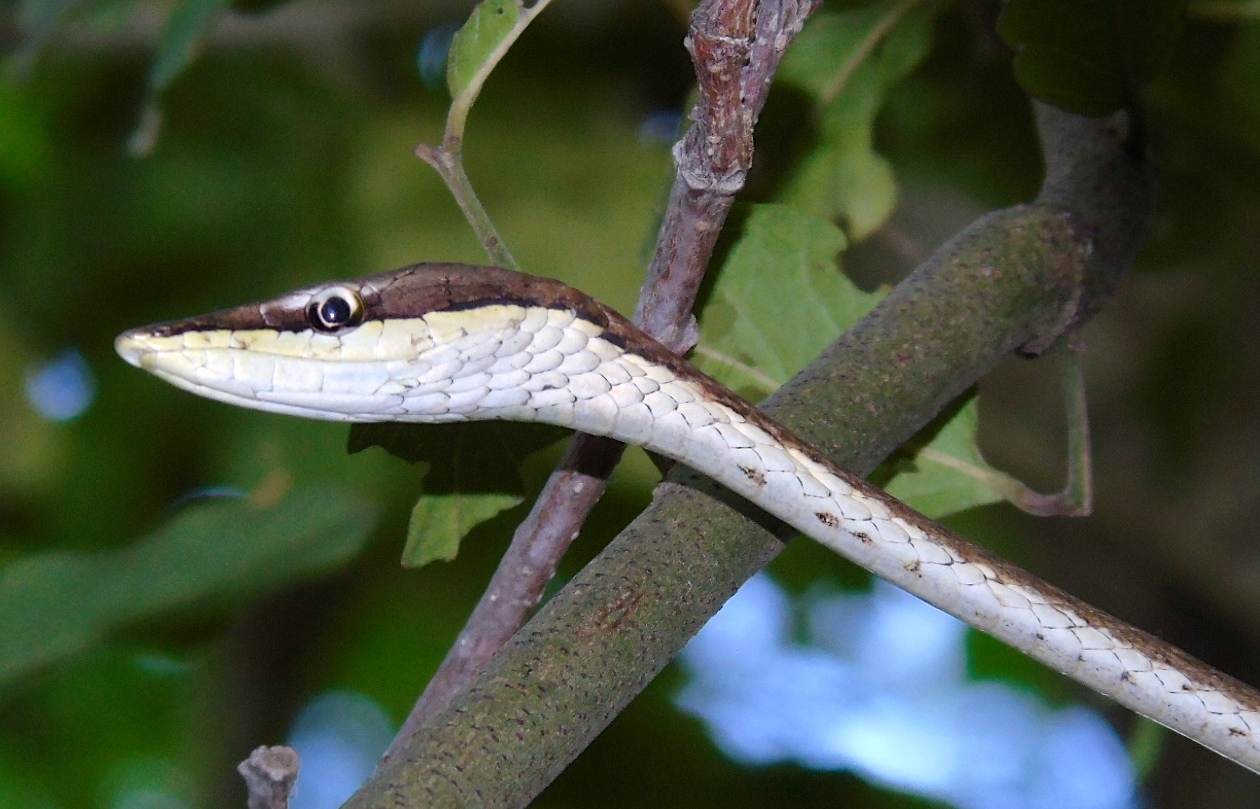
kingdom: Animalia
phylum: Chordata
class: Squamata
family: Colubridae
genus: Oxybelis
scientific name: Oxybelis microphthalmus
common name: Thrornscrub vine snake
